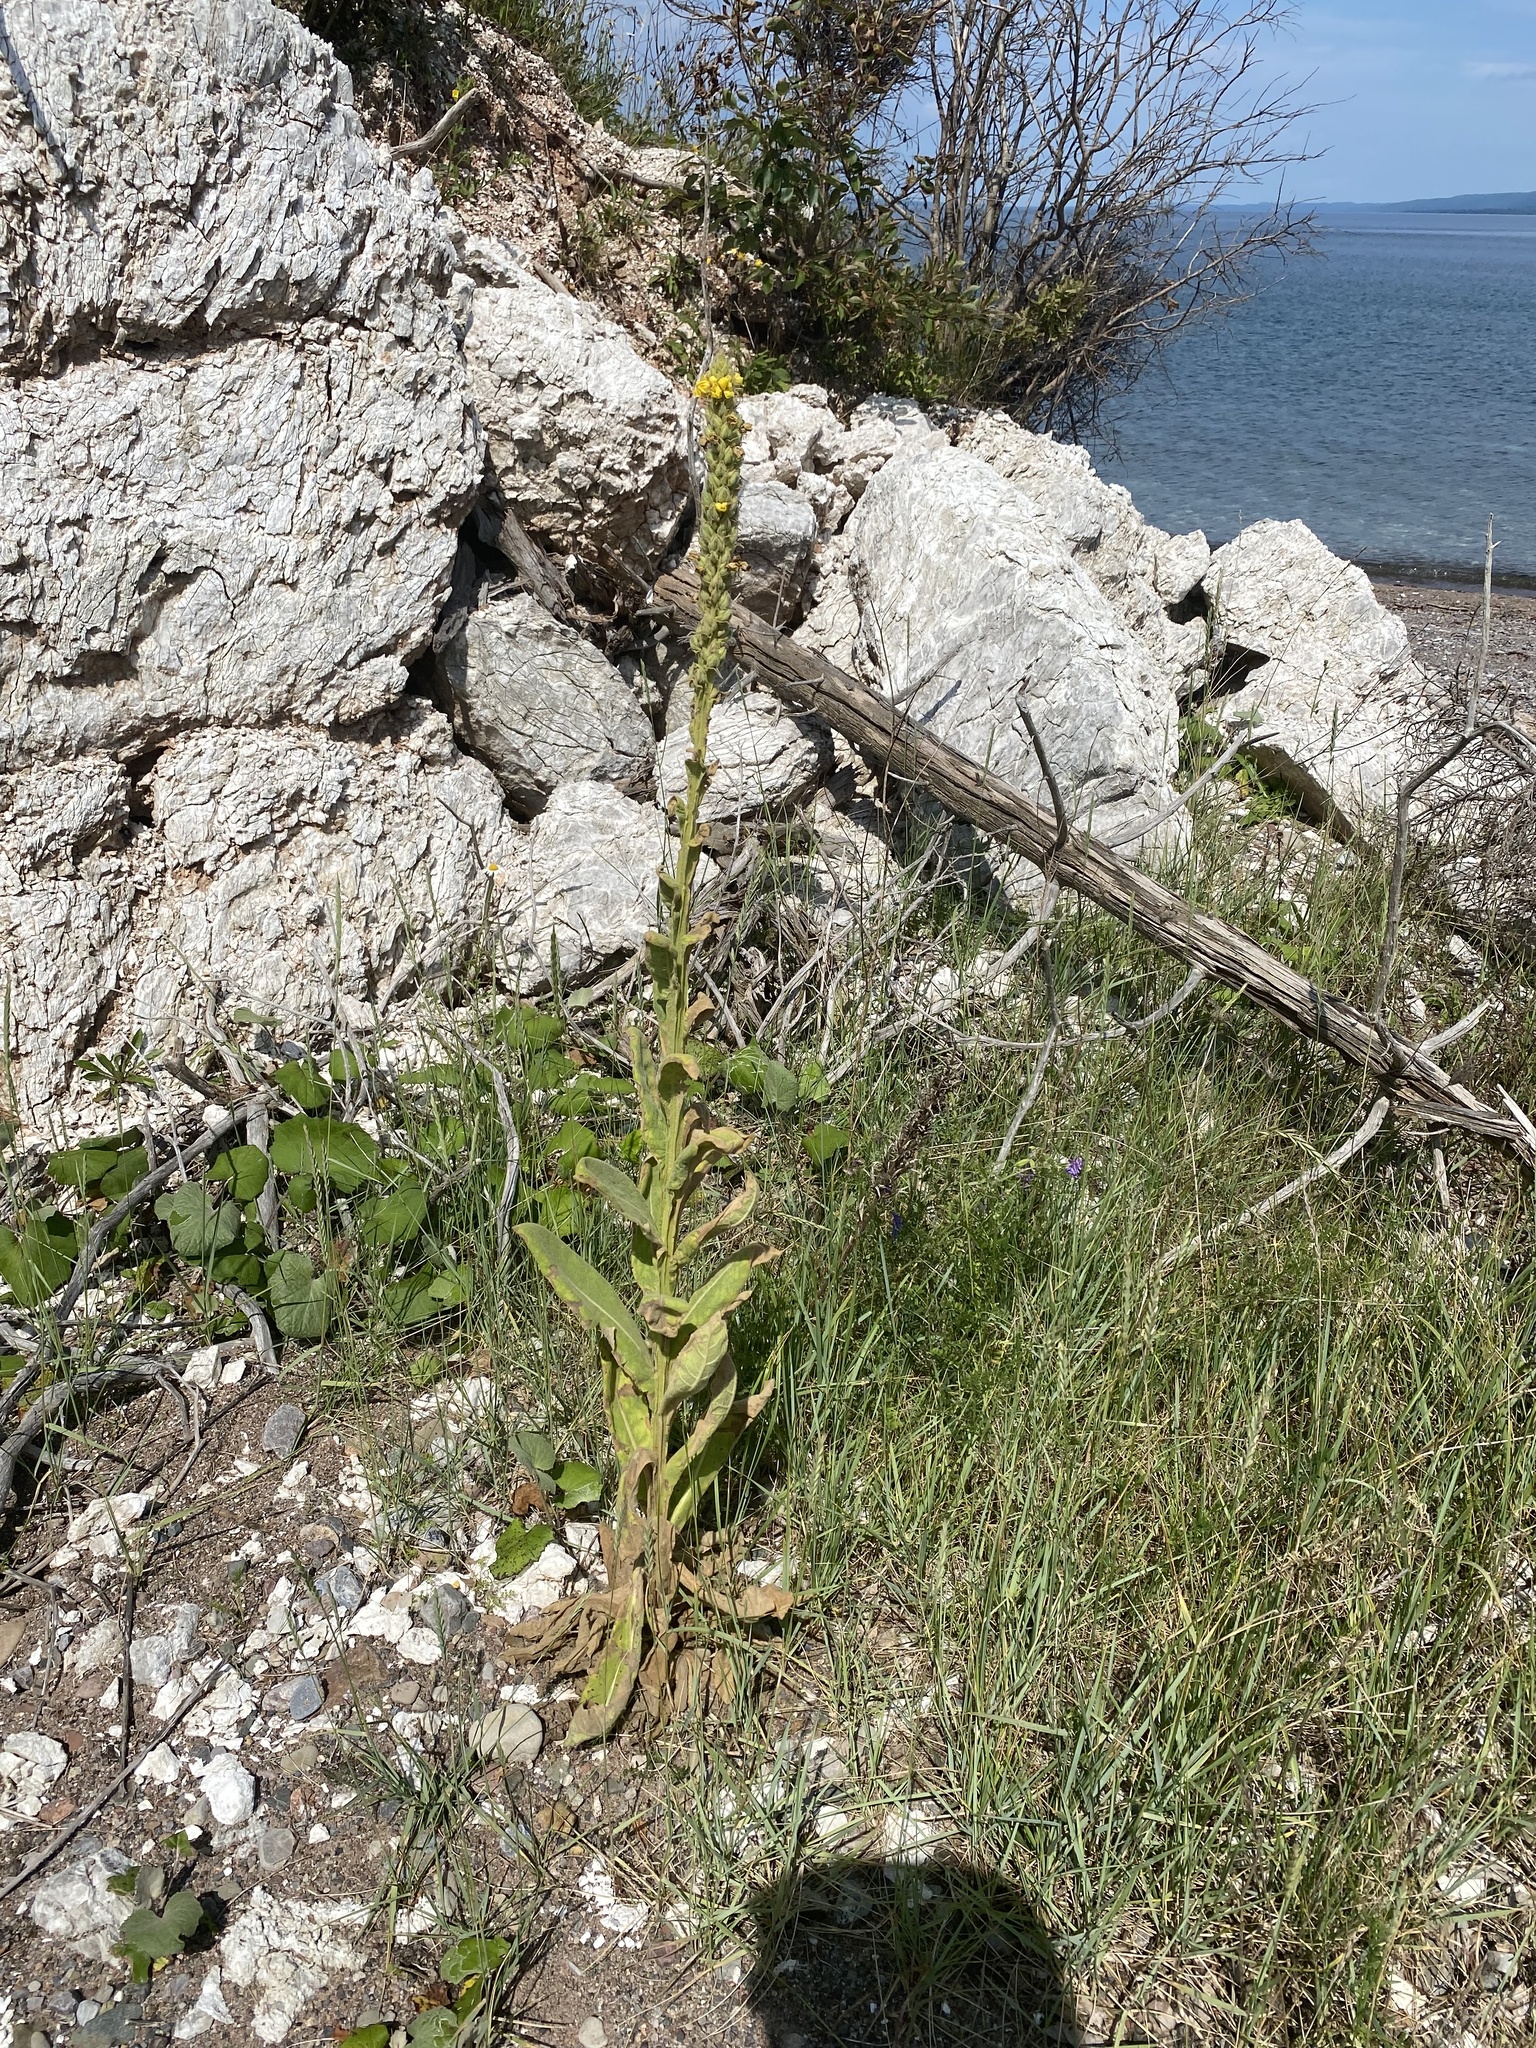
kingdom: Plantae
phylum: Tracheophyta
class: Magnoliopsida
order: Lamiales
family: Scrophulariaceae
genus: Verbascum
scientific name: Verbascum thapsus
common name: Common mullein
